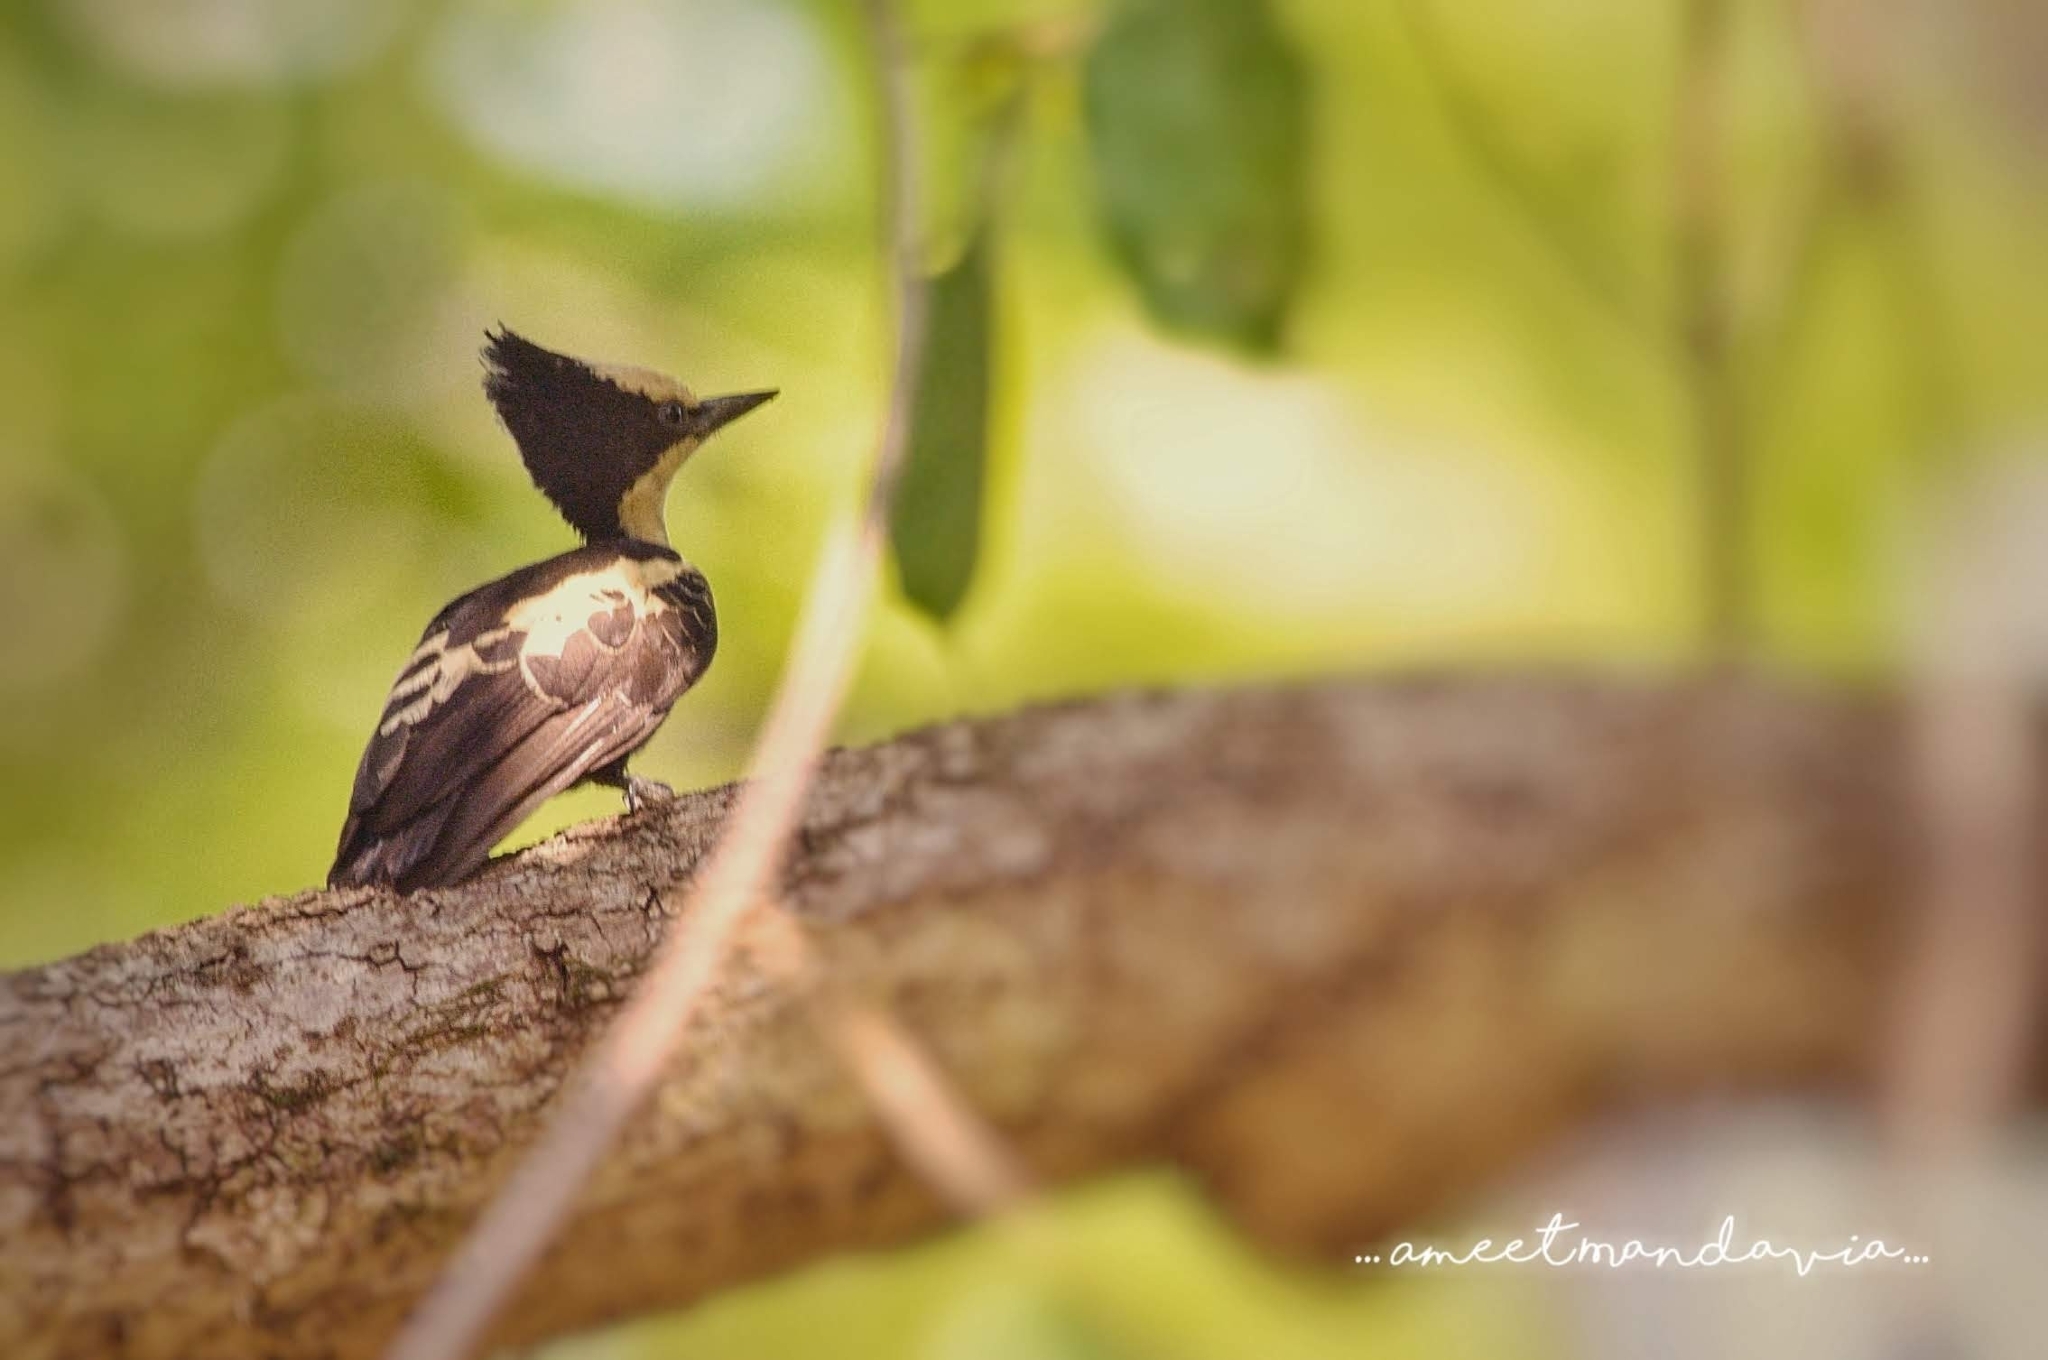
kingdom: Animalia
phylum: Chordata
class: Aves
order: Piciformes
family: Picidae
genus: Hemicircus
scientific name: Hemicircus canente
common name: Heart-spotted woodpecker
